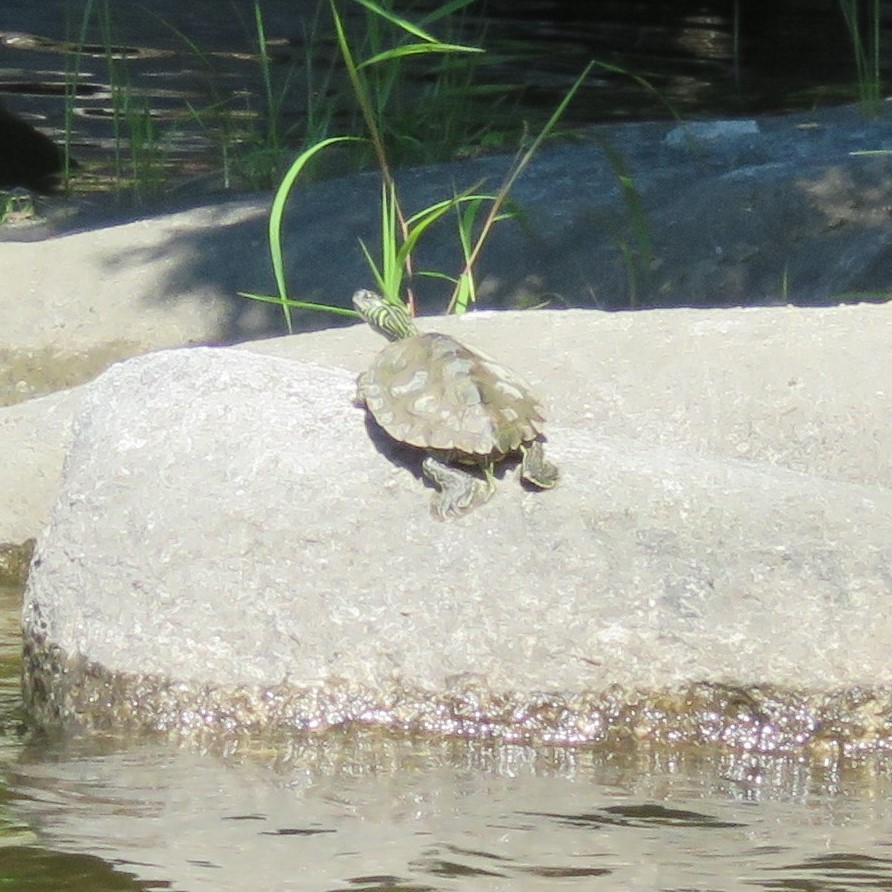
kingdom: Animalia
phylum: Chordata
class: Testudines
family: Emydidae
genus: Graptemys
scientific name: Graptemys geographica
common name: Common map turtle
